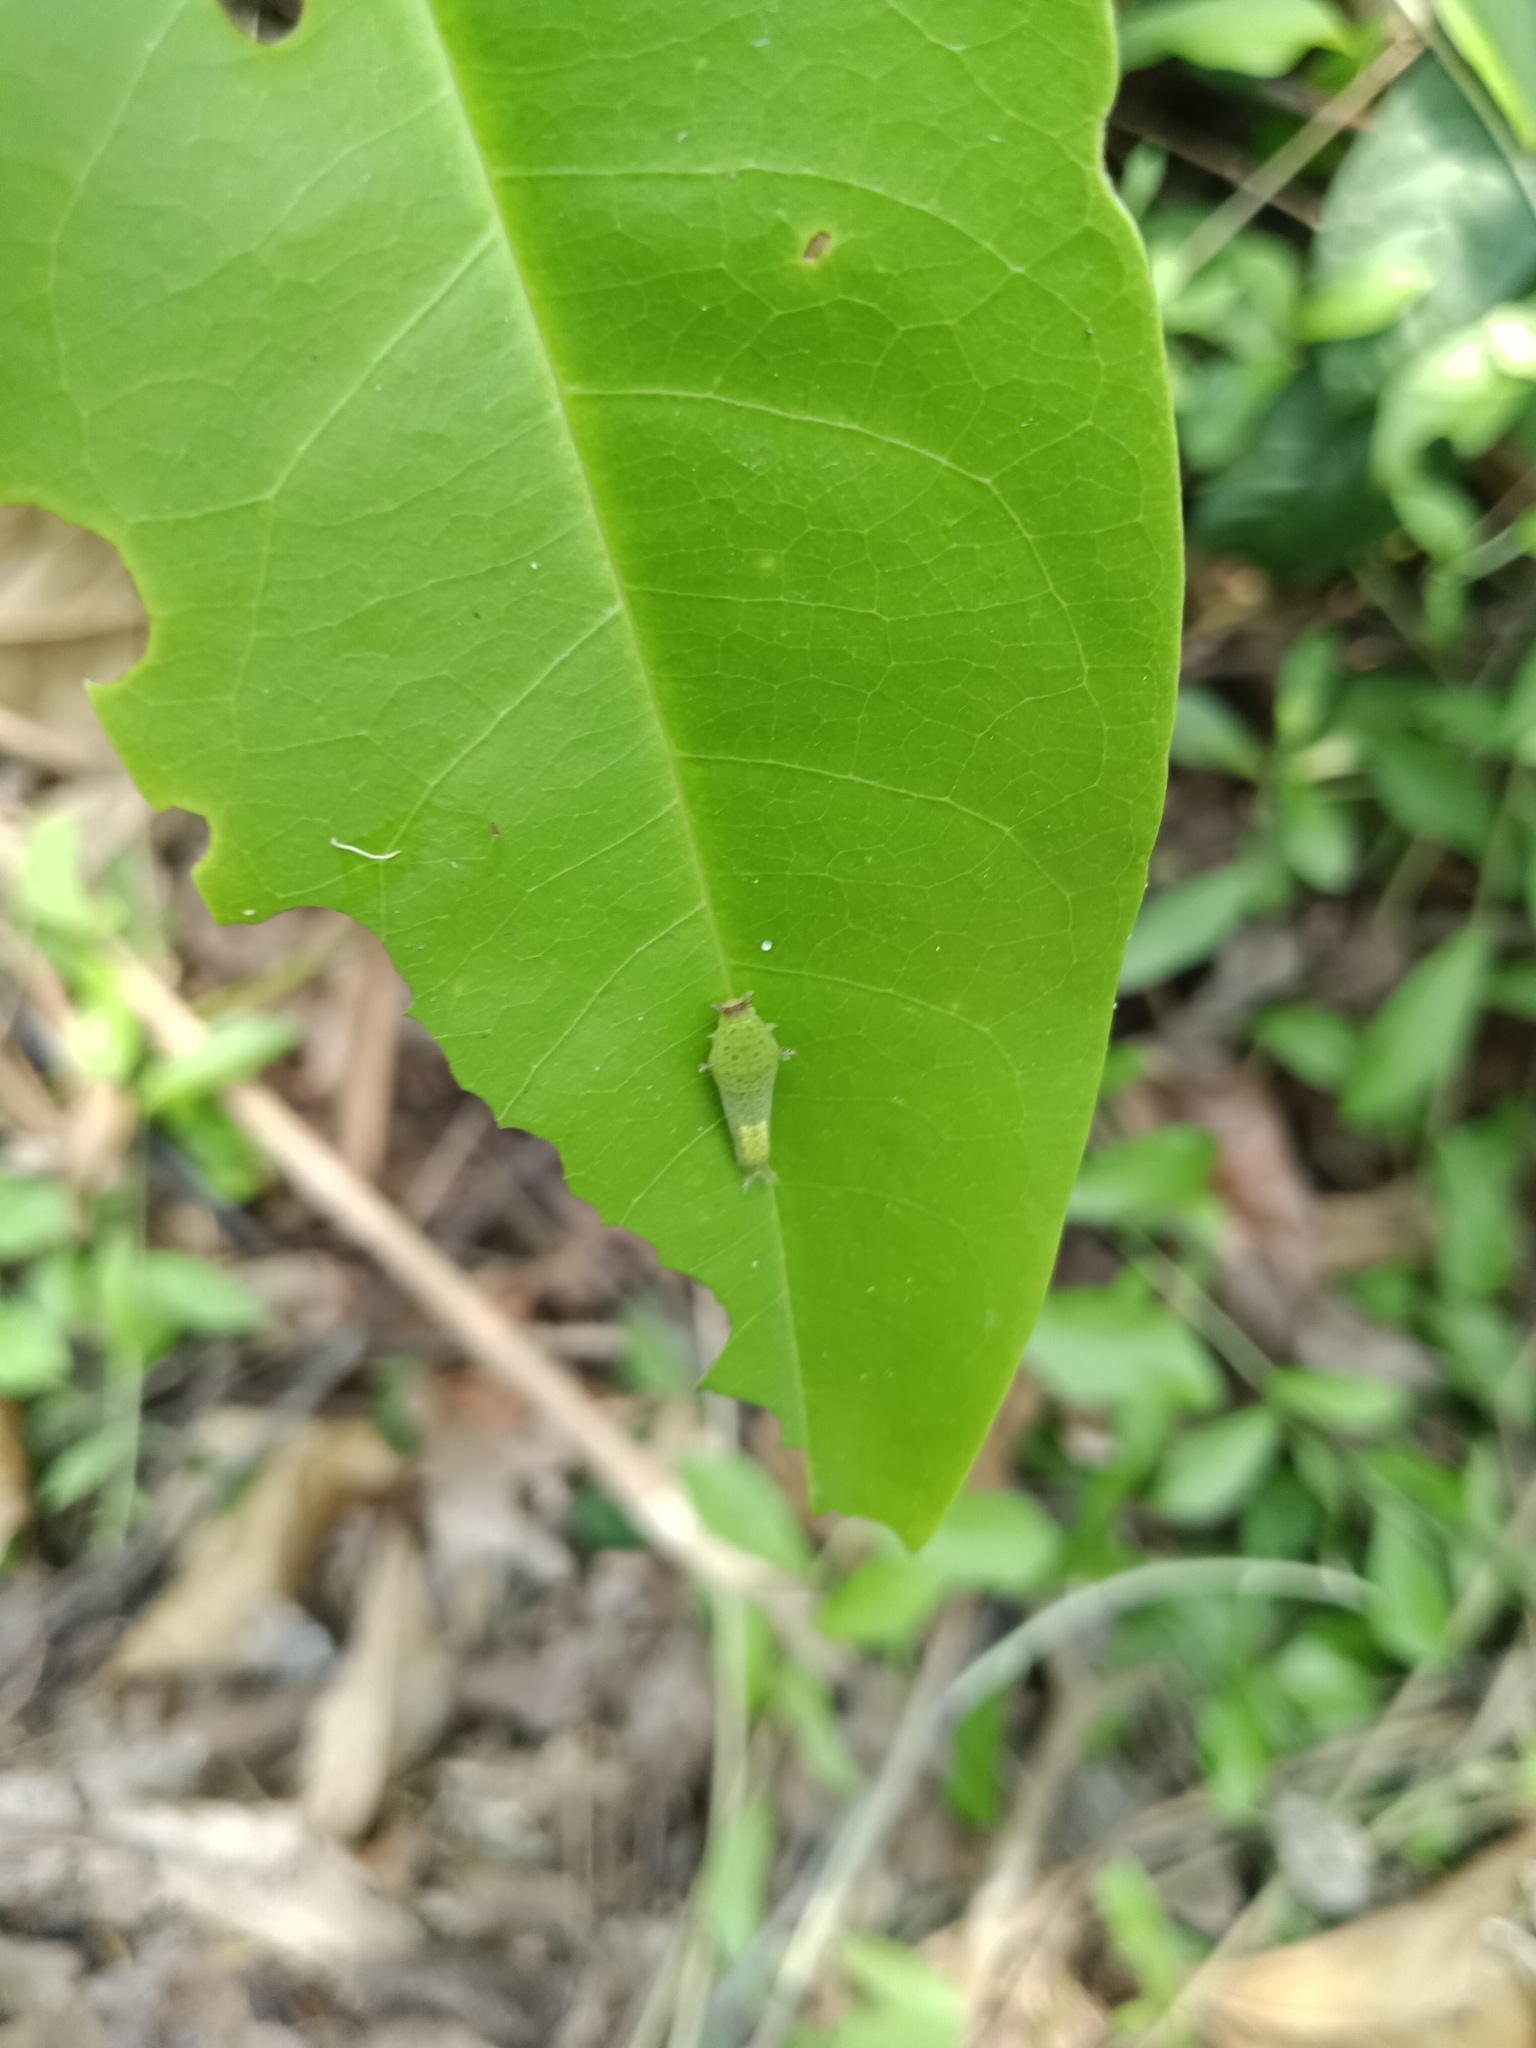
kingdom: Animalia
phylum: Arthropoda
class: Insecta
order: Lepidoptera
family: Papilionidae
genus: Graphium
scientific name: Graphium agamemnon
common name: Tailed jay
